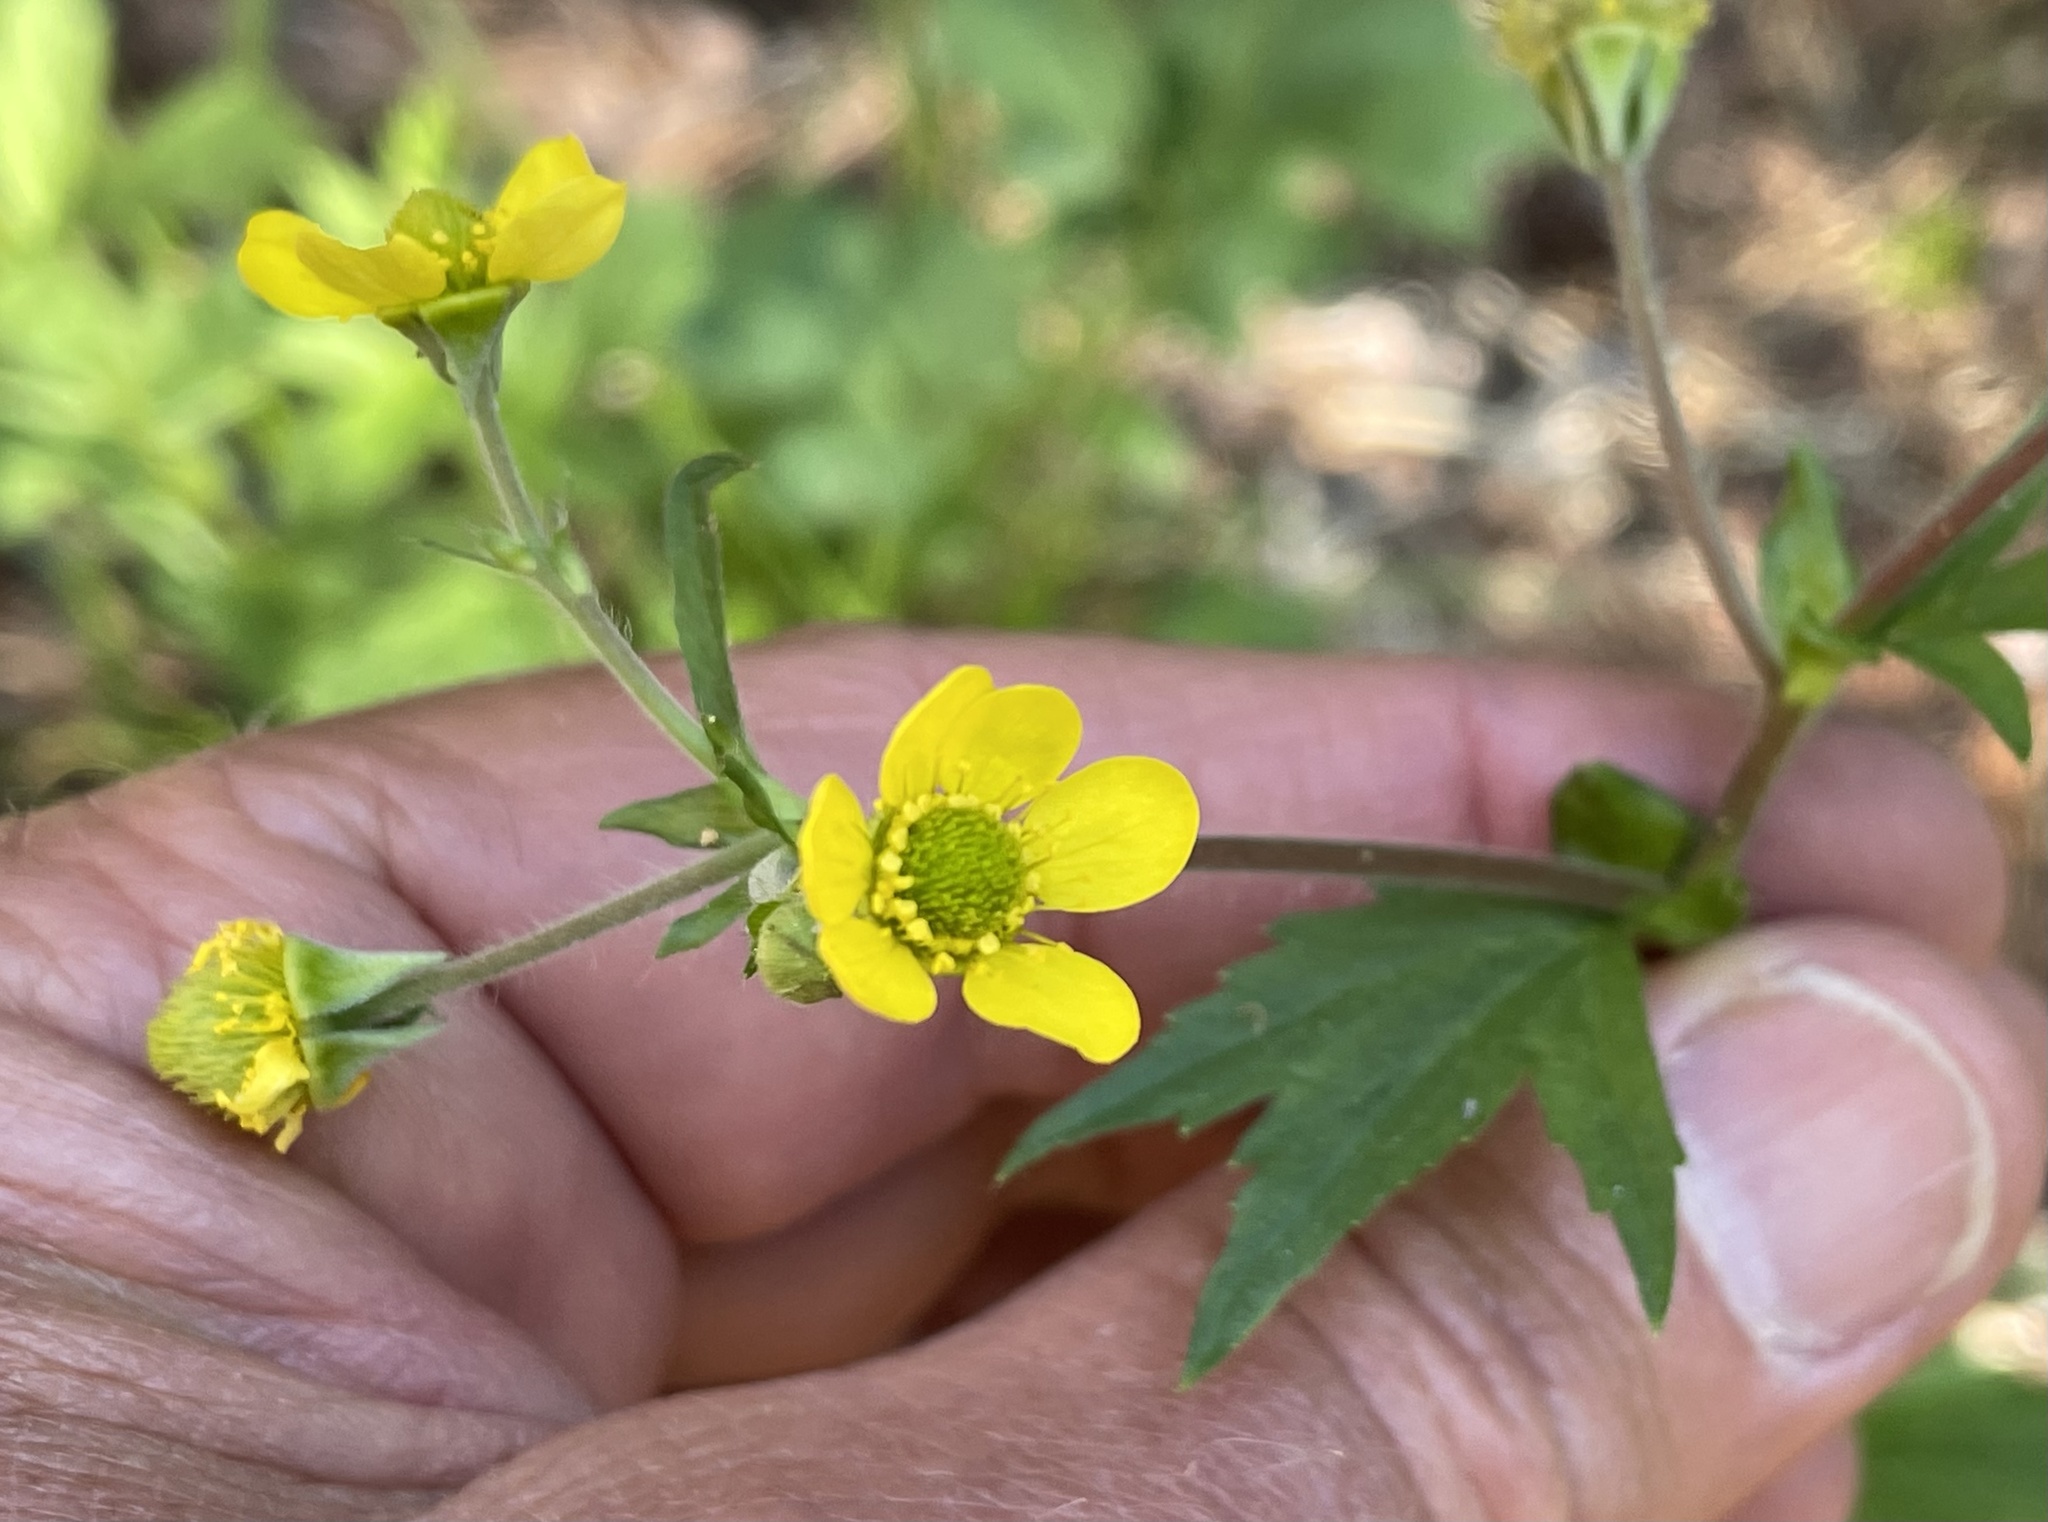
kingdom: Plantae
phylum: Tracheophyta
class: Magnoliopsida
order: Rosales
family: Rosaceae
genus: Geum
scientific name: Geum macrophyllum
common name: Large-leaved avens
